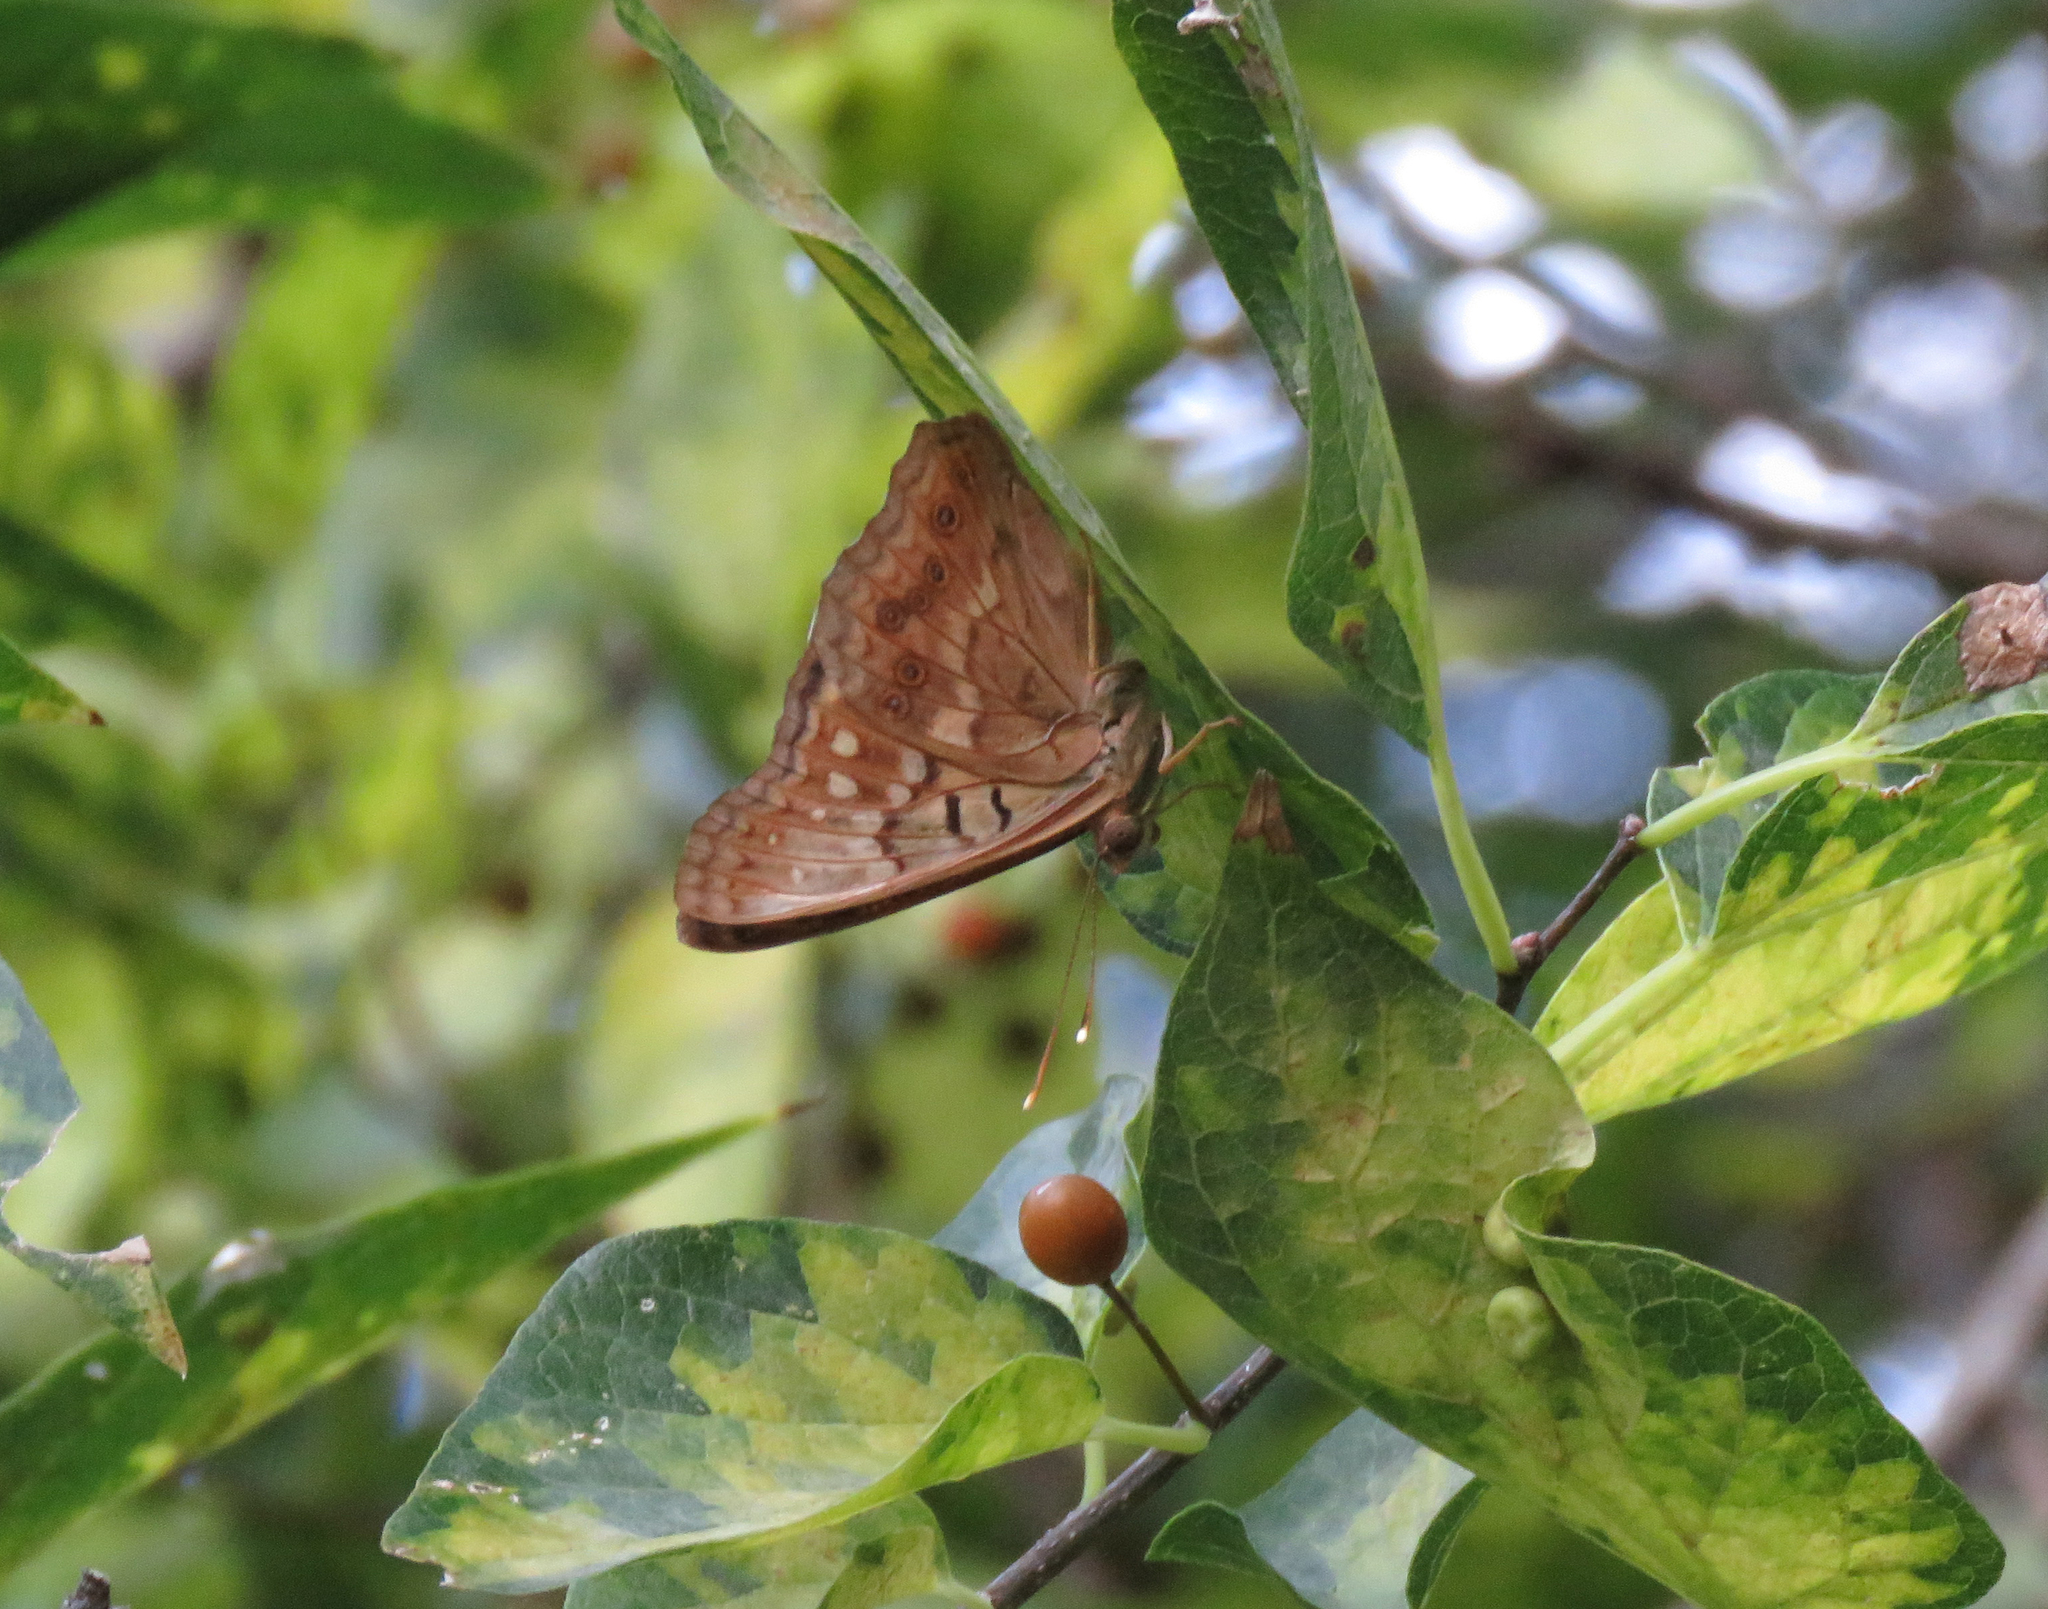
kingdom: Animalia
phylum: Arthropoda
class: Insecta
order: Lepidoptera
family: Nymphalidae
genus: Asterocampa
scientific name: Asterocampa clyton
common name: Tawny emperor
